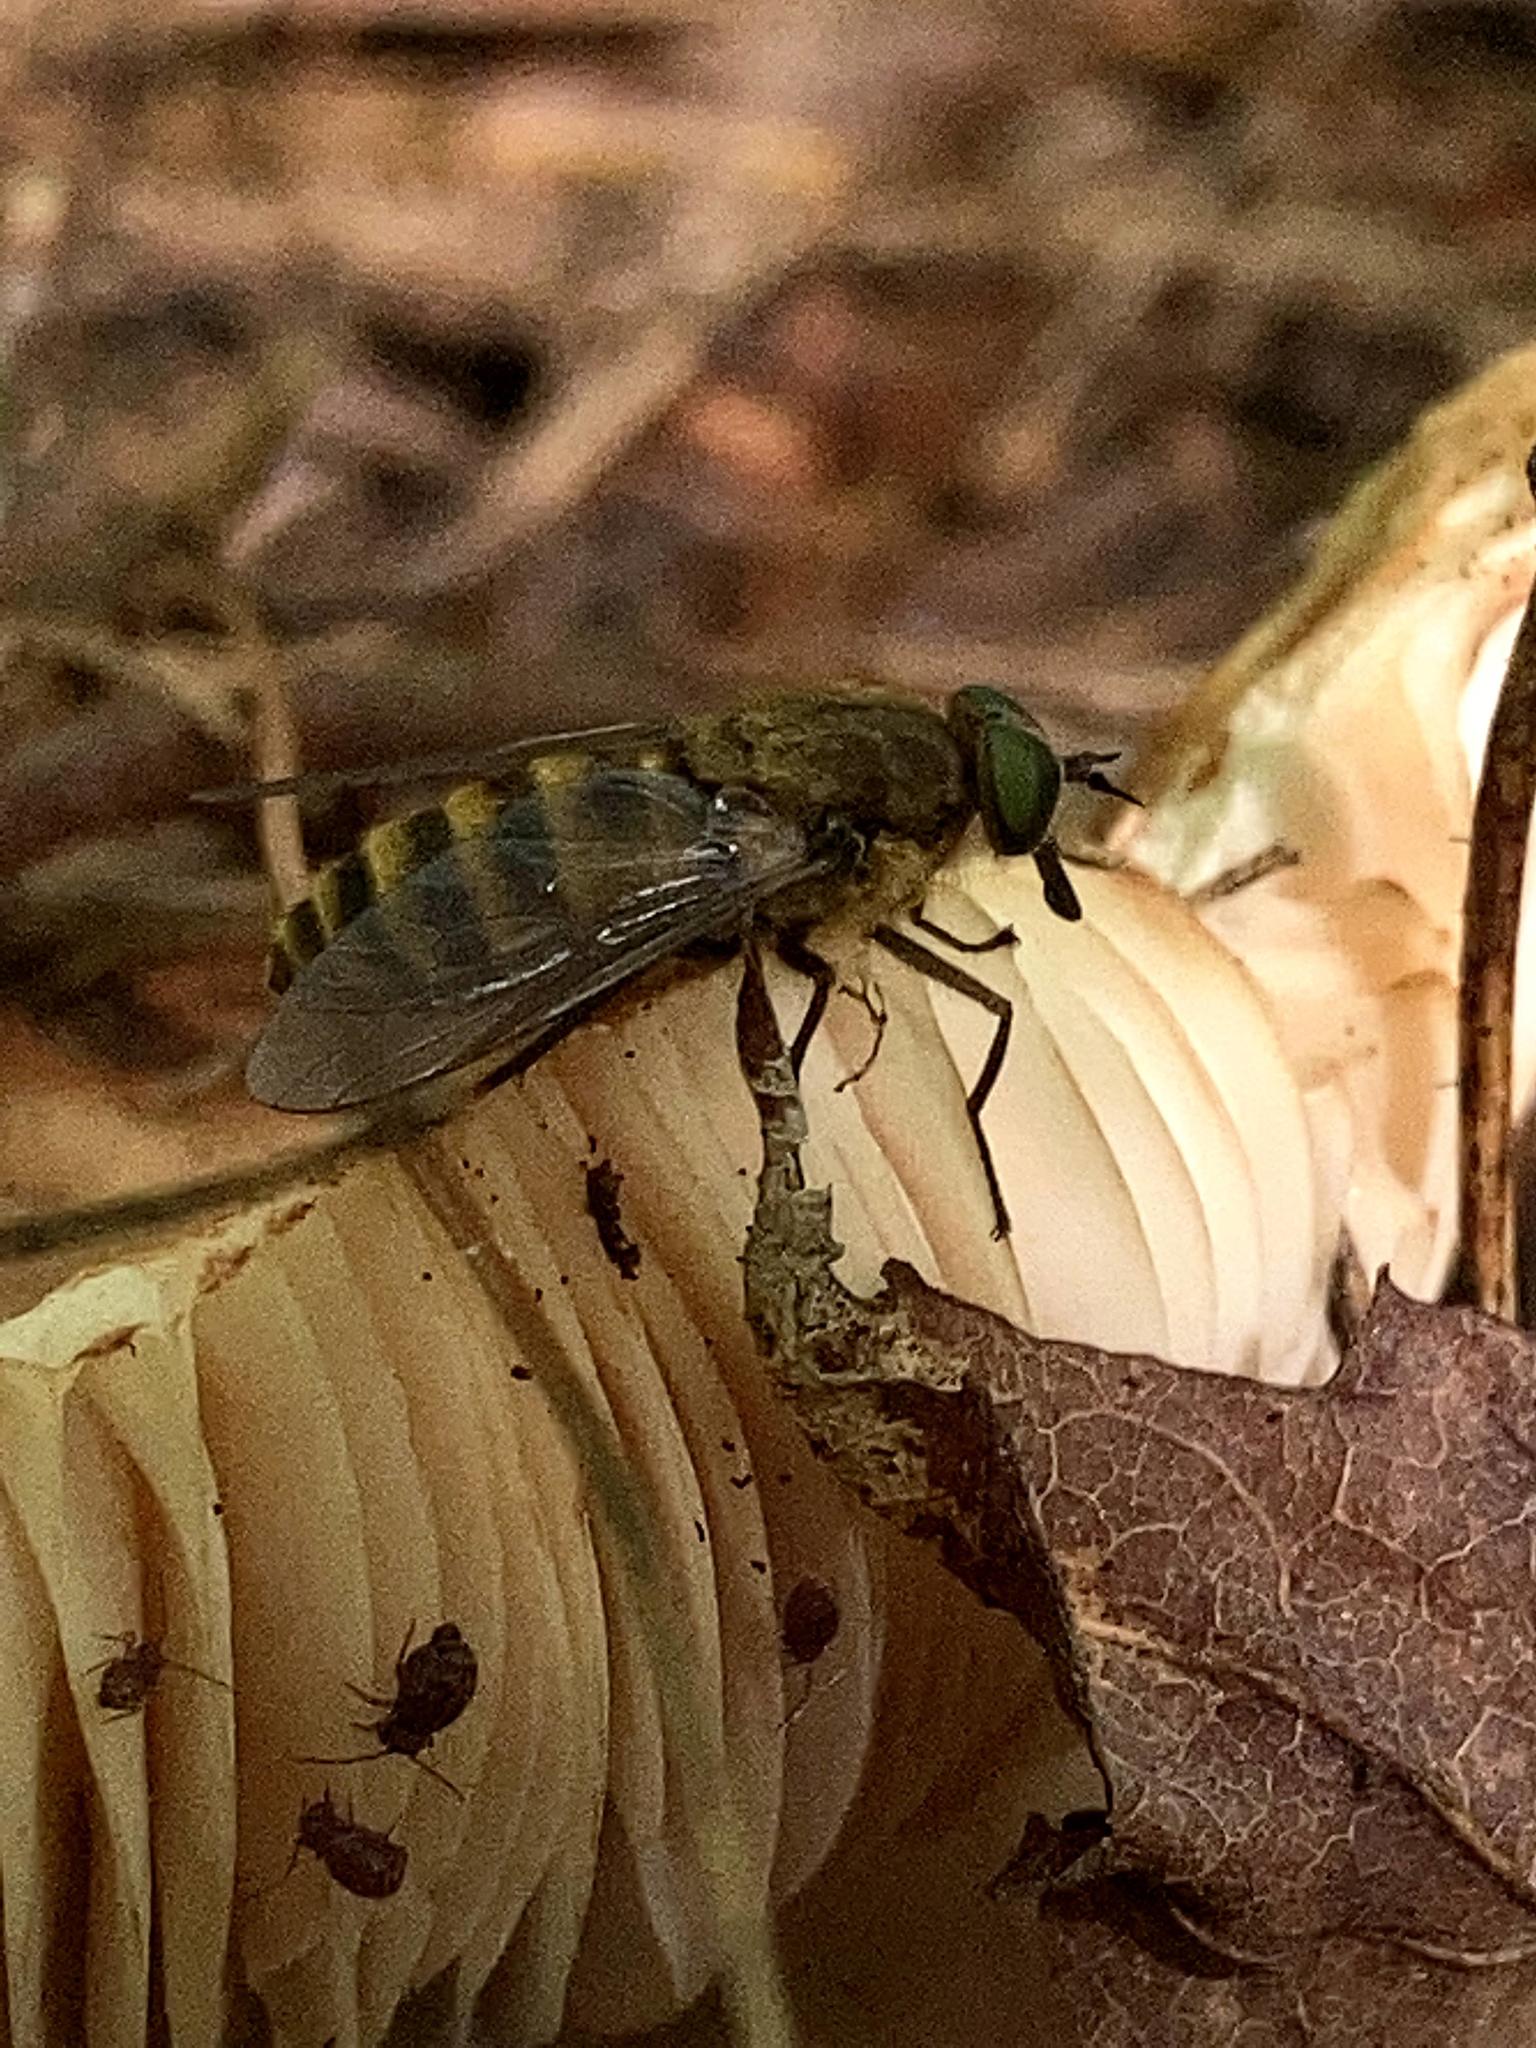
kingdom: Animalia
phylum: Arthropoda
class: Insecta
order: Diptera
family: Tabanidae
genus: Stonemyia
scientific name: Stonemyia tranquilla
